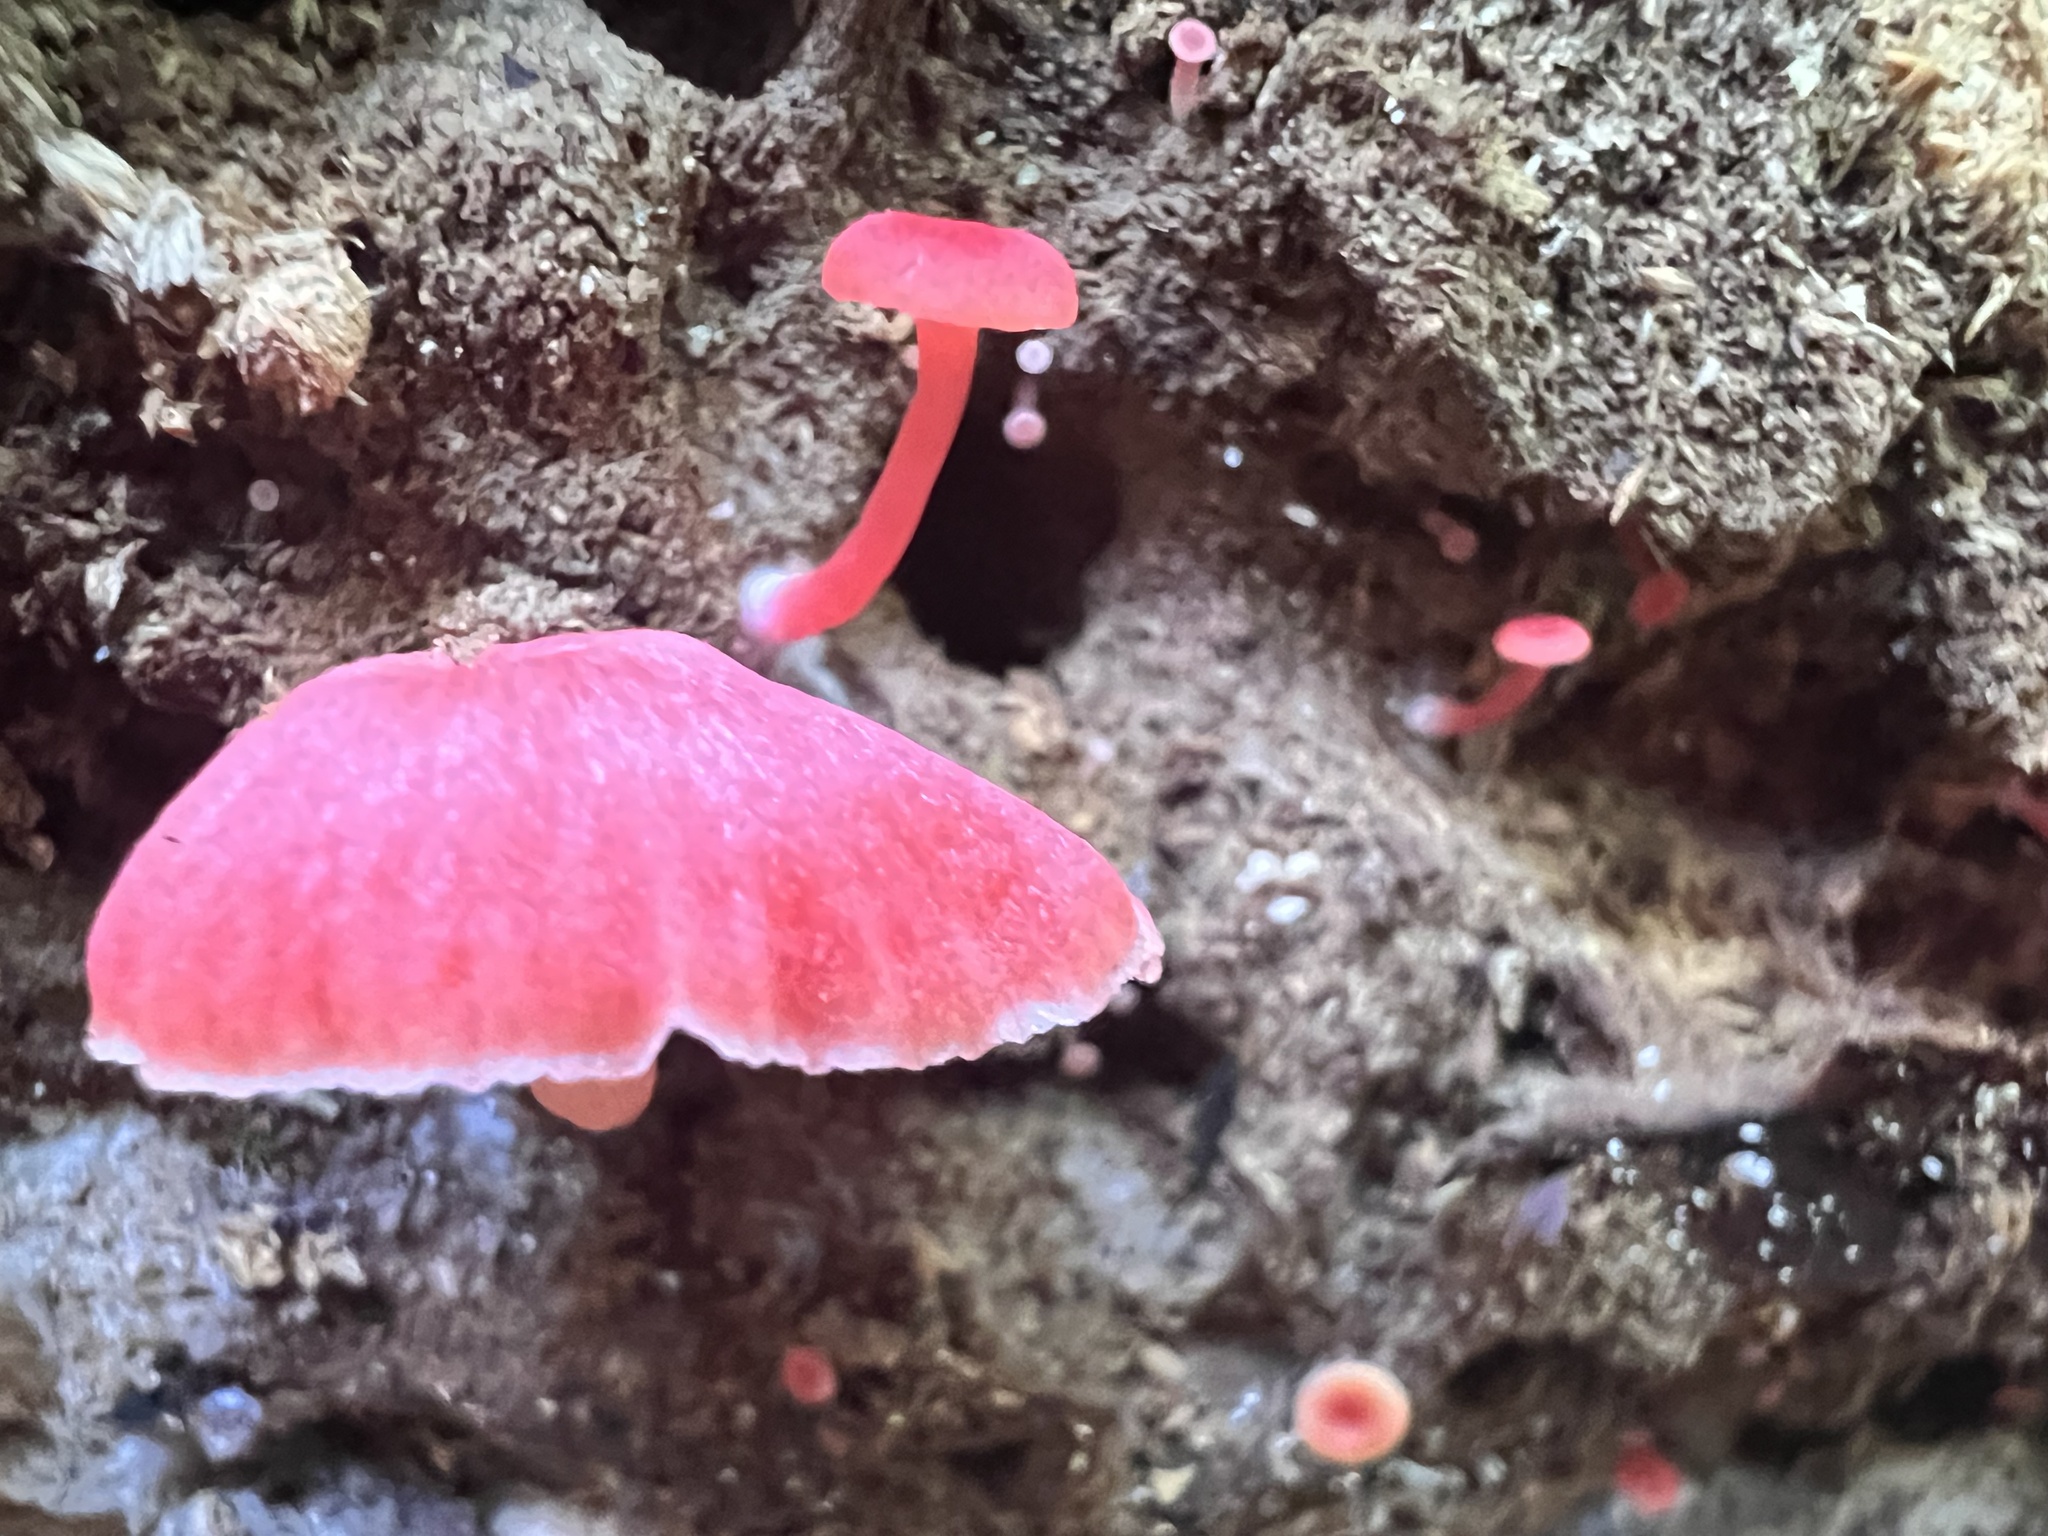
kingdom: Fungi
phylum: Basidiomycota
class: Agaricomycetes
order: Agaricales
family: Mycenaceae
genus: Mycena
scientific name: Mycena roseilignicola
